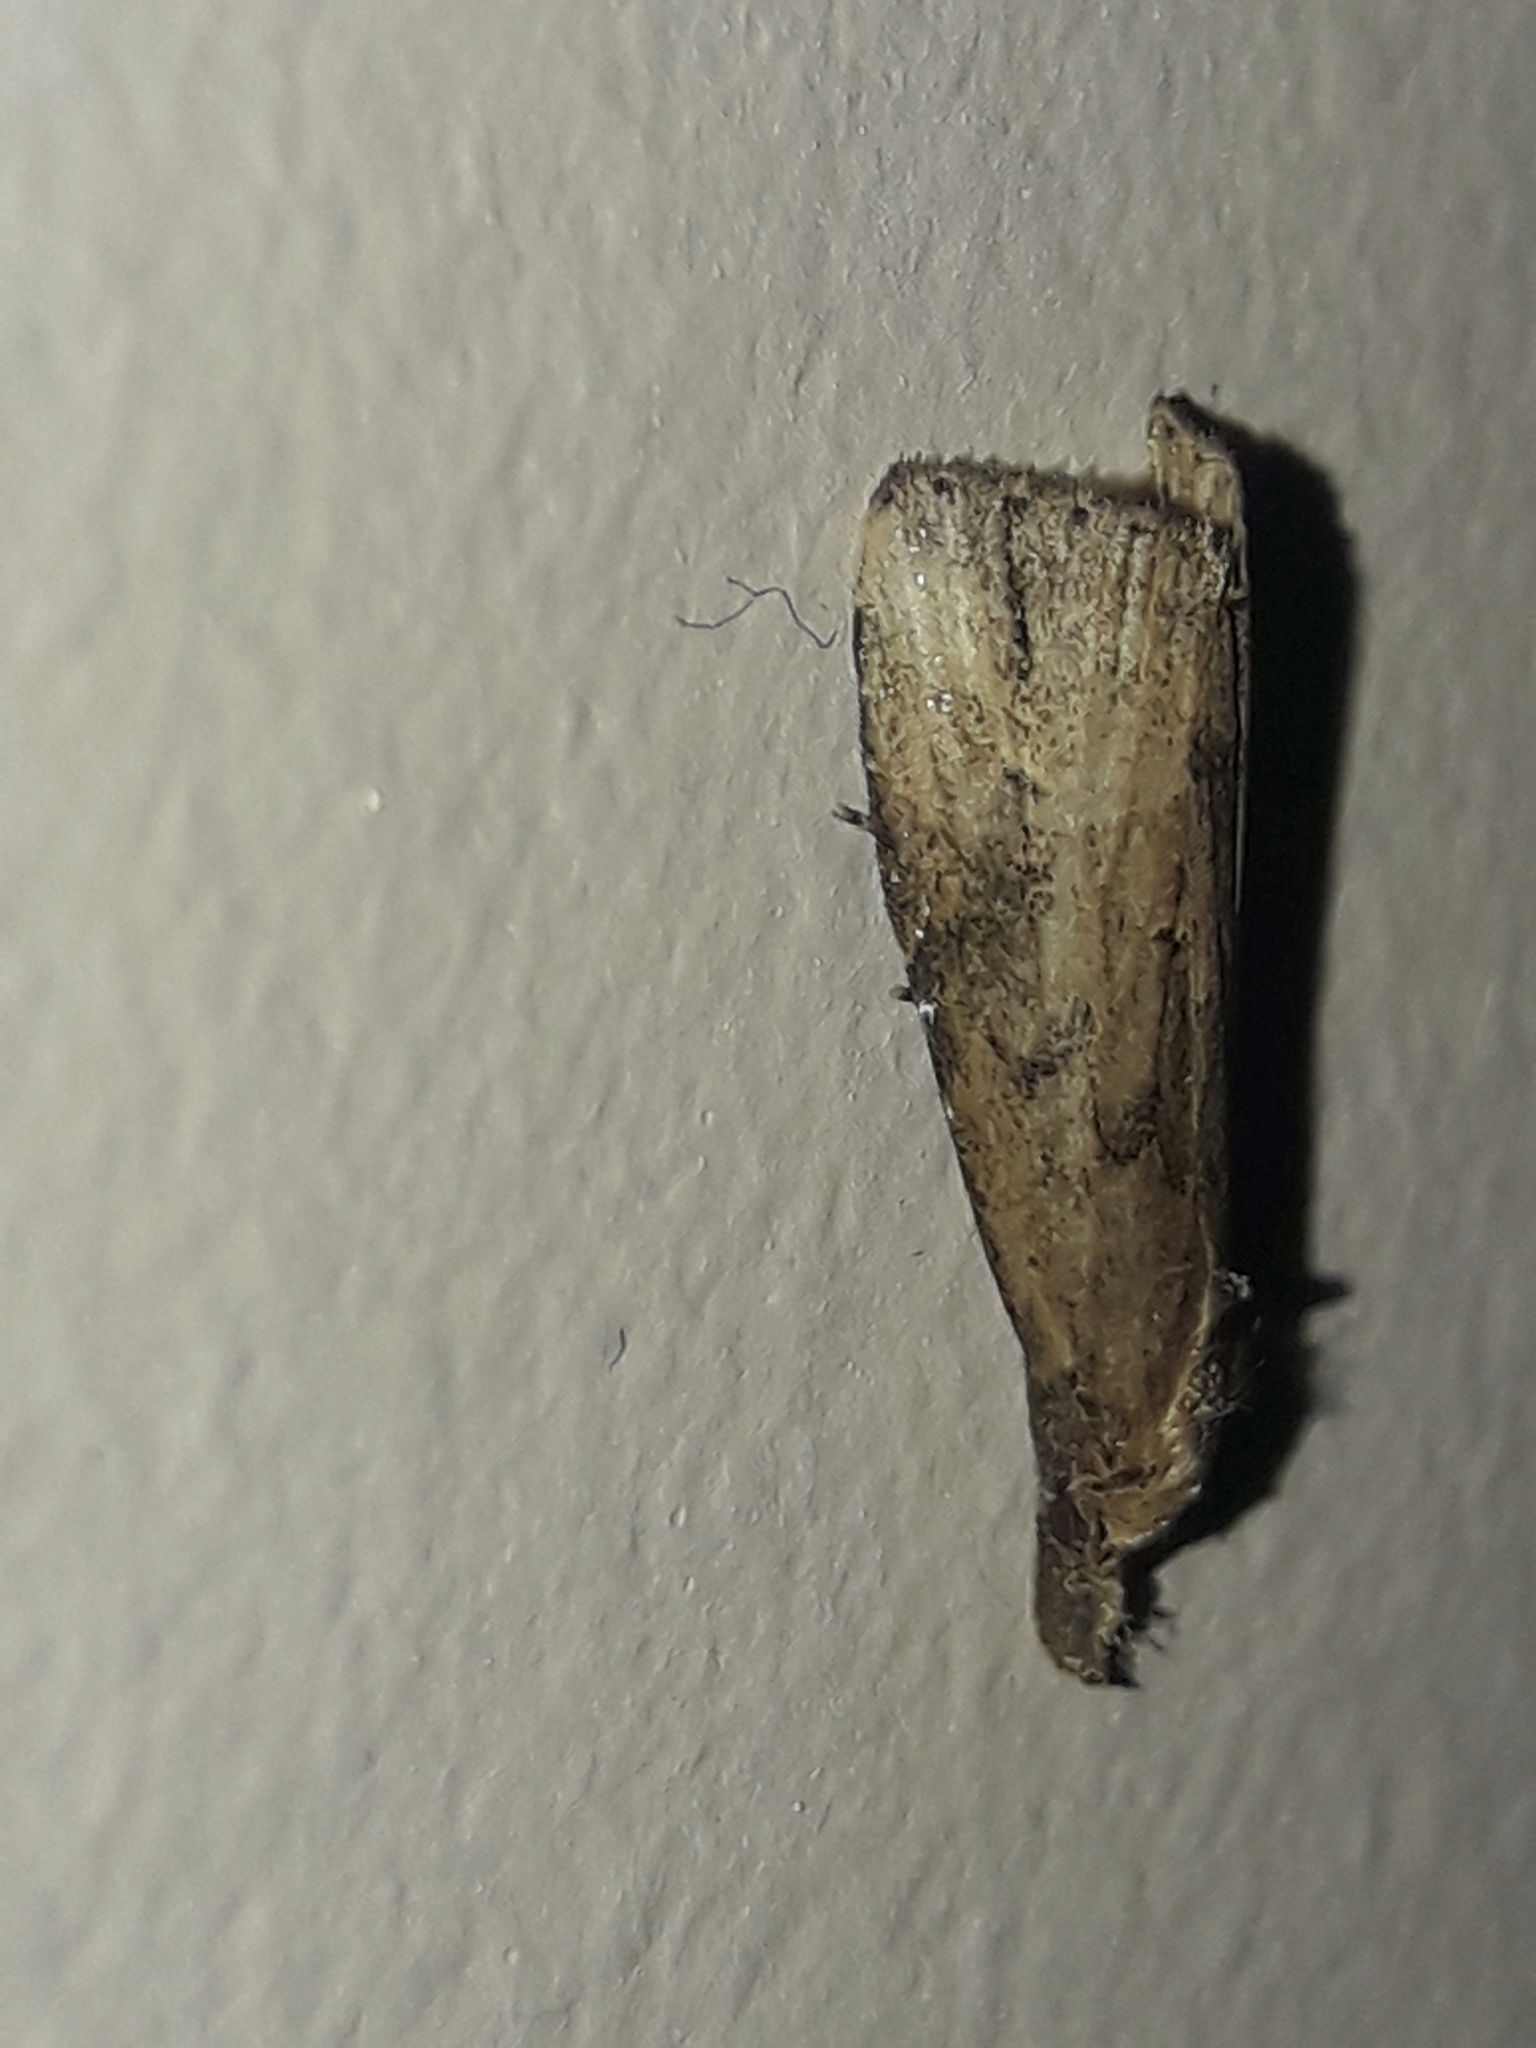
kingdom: Animalia
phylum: Arthropoda
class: Insecta
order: Lepidoptera
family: Erebidae
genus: Schrankia
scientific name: Schrankia costaestrigalis
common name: Pinion-streaked snout
